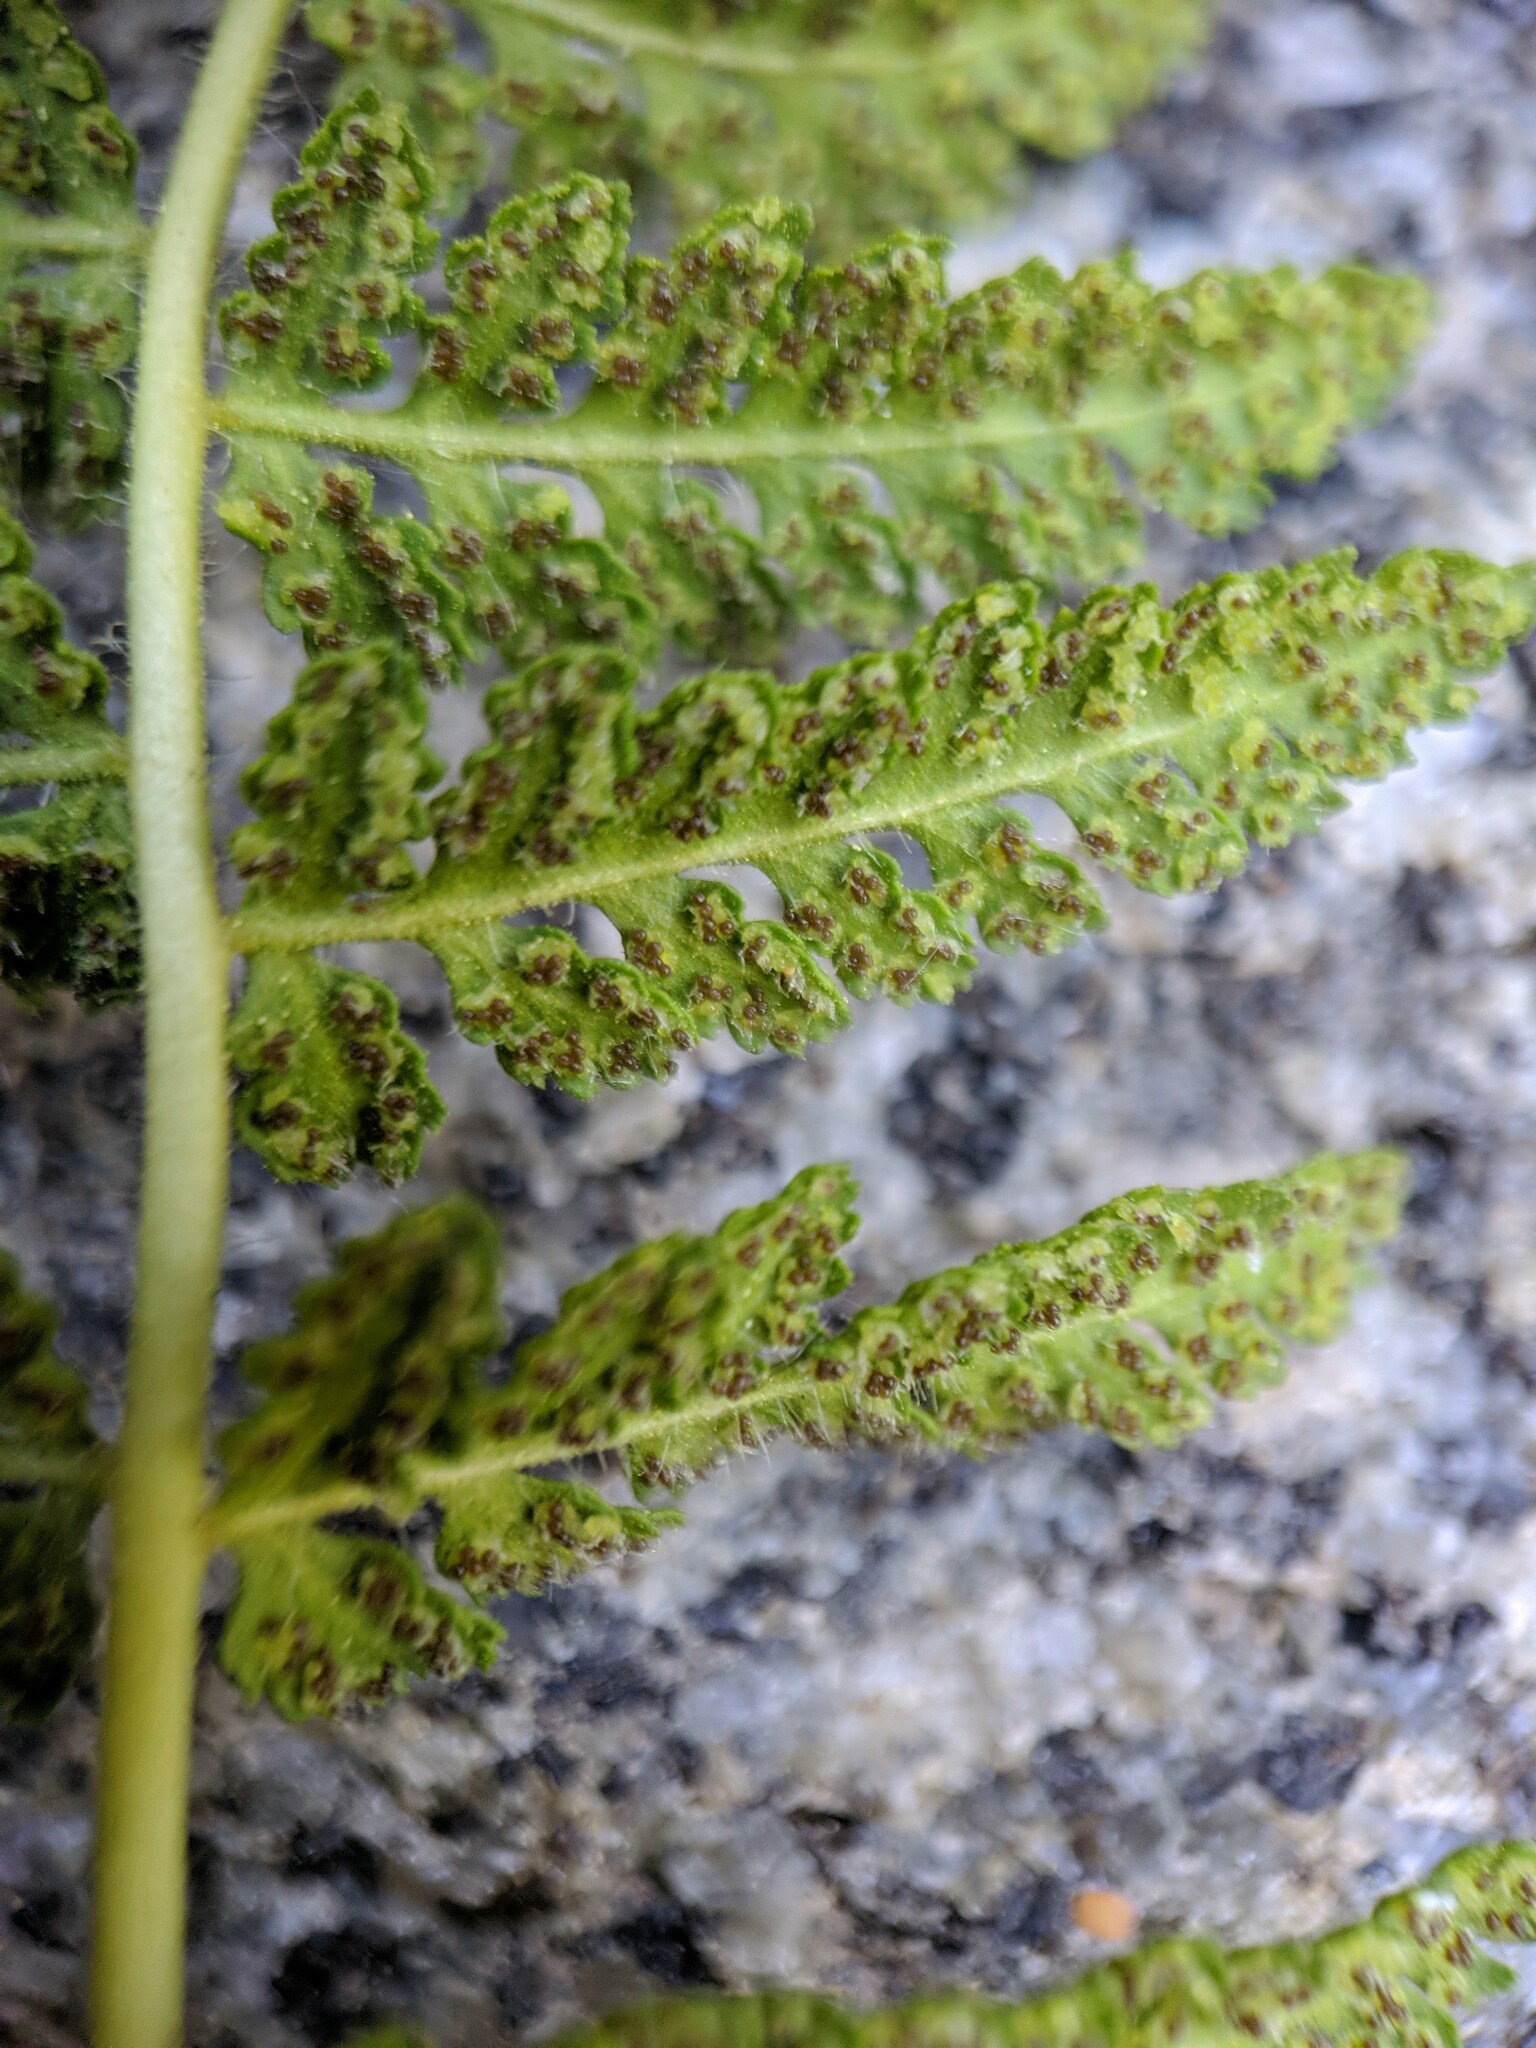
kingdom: Plantae
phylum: Tracheophyta
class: Polypodiopsida
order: Polypodiales
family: Woodsiaceae
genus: Physematium
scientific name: Physematium scopulinum
